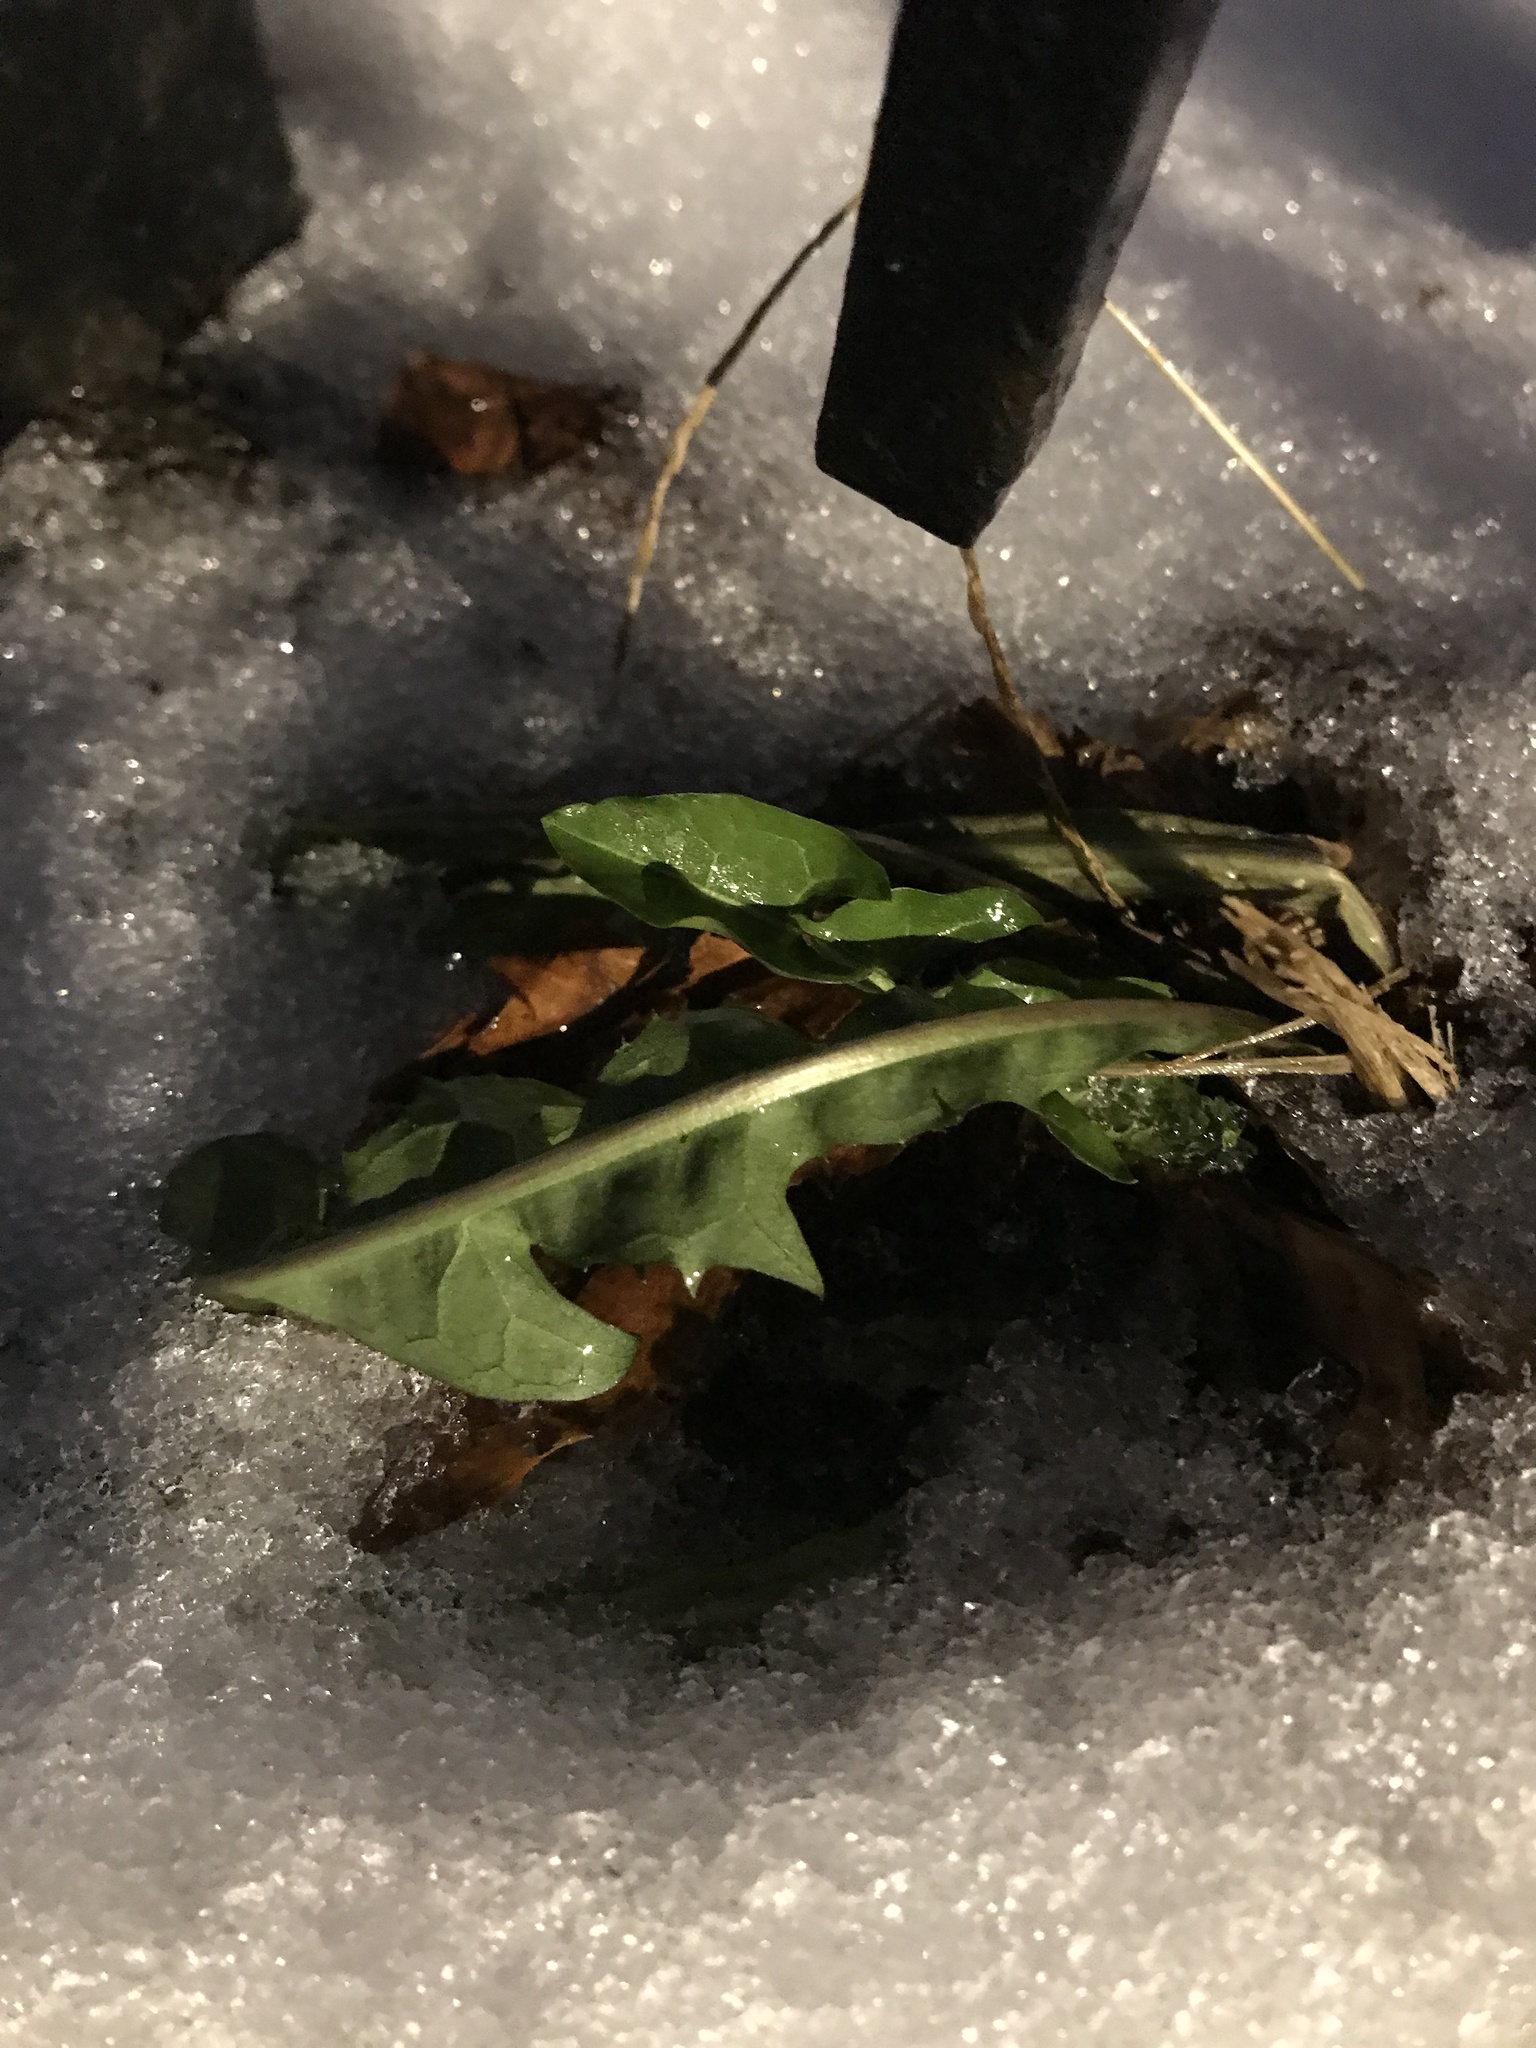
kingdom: Plantae
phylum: Tracheophyta
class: Magnoliopsida
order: Asterales
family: Asteraceae
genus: Taraxacum
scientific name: Taraxacum officinale
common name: Common dandelion
